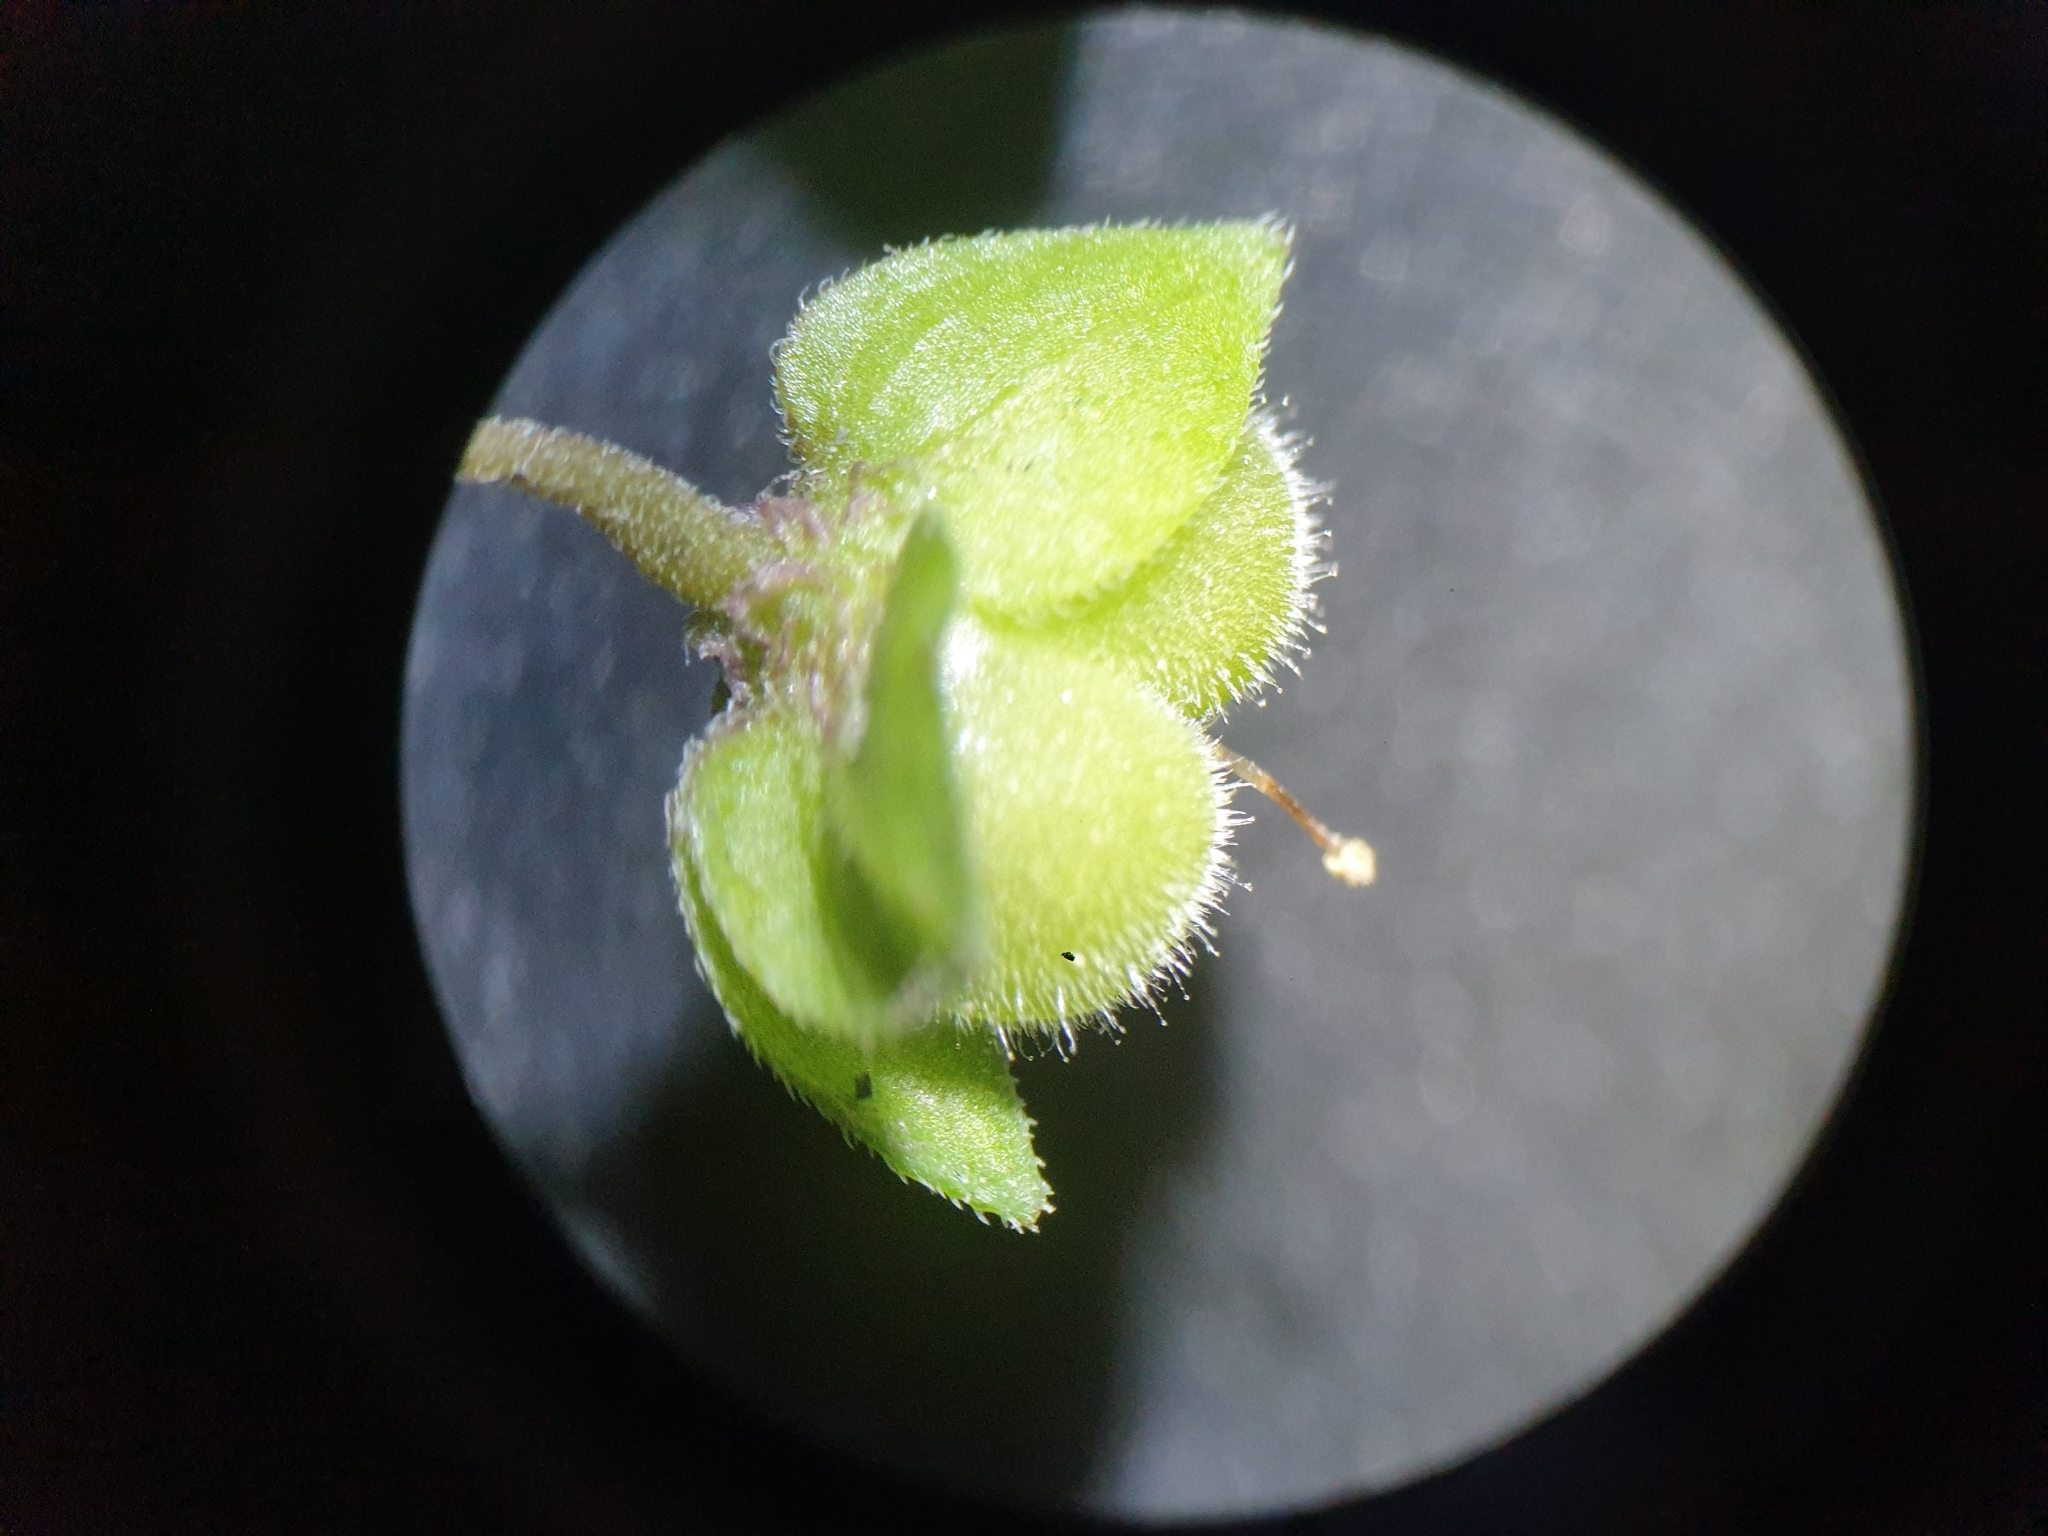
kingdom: Plantae
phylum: Tracheophyta
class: Magnoliopsida
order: Lamiales
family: Plantaginaceae
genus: Veronica
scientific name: Veronica polita
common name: Grey field-speedwell
